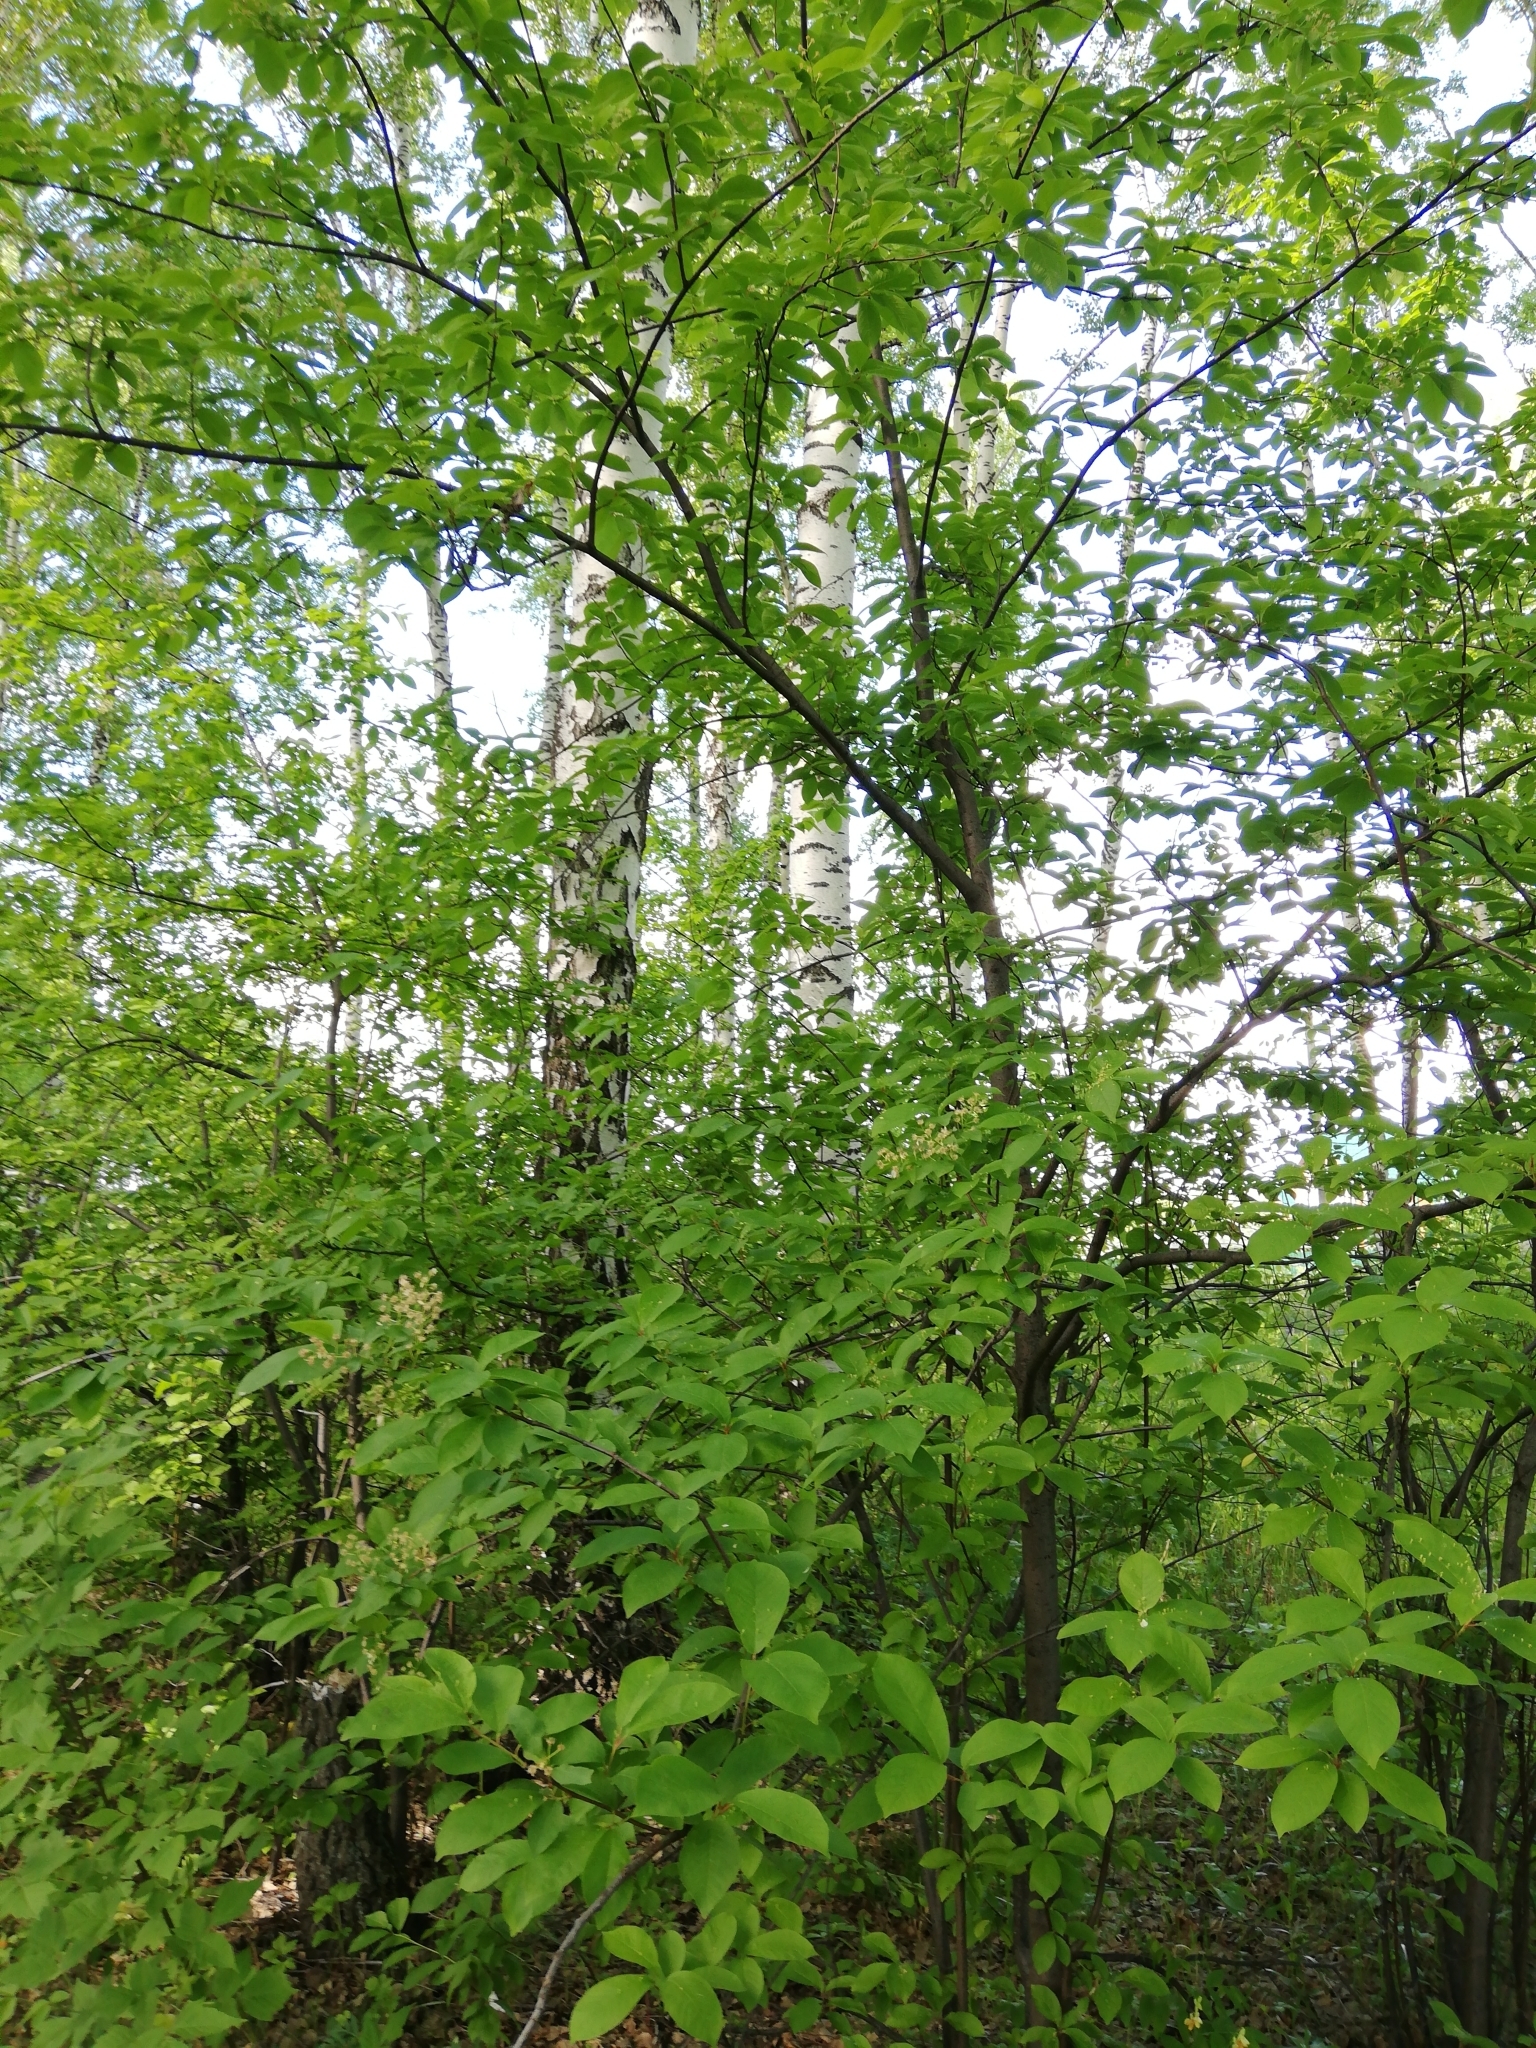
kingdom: Plantae
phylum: Tracheophyta
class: Magnoliopsida
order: Rosales
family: Rosaceae
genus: Prunus
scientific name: Prunus padus
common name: Bird cherry
